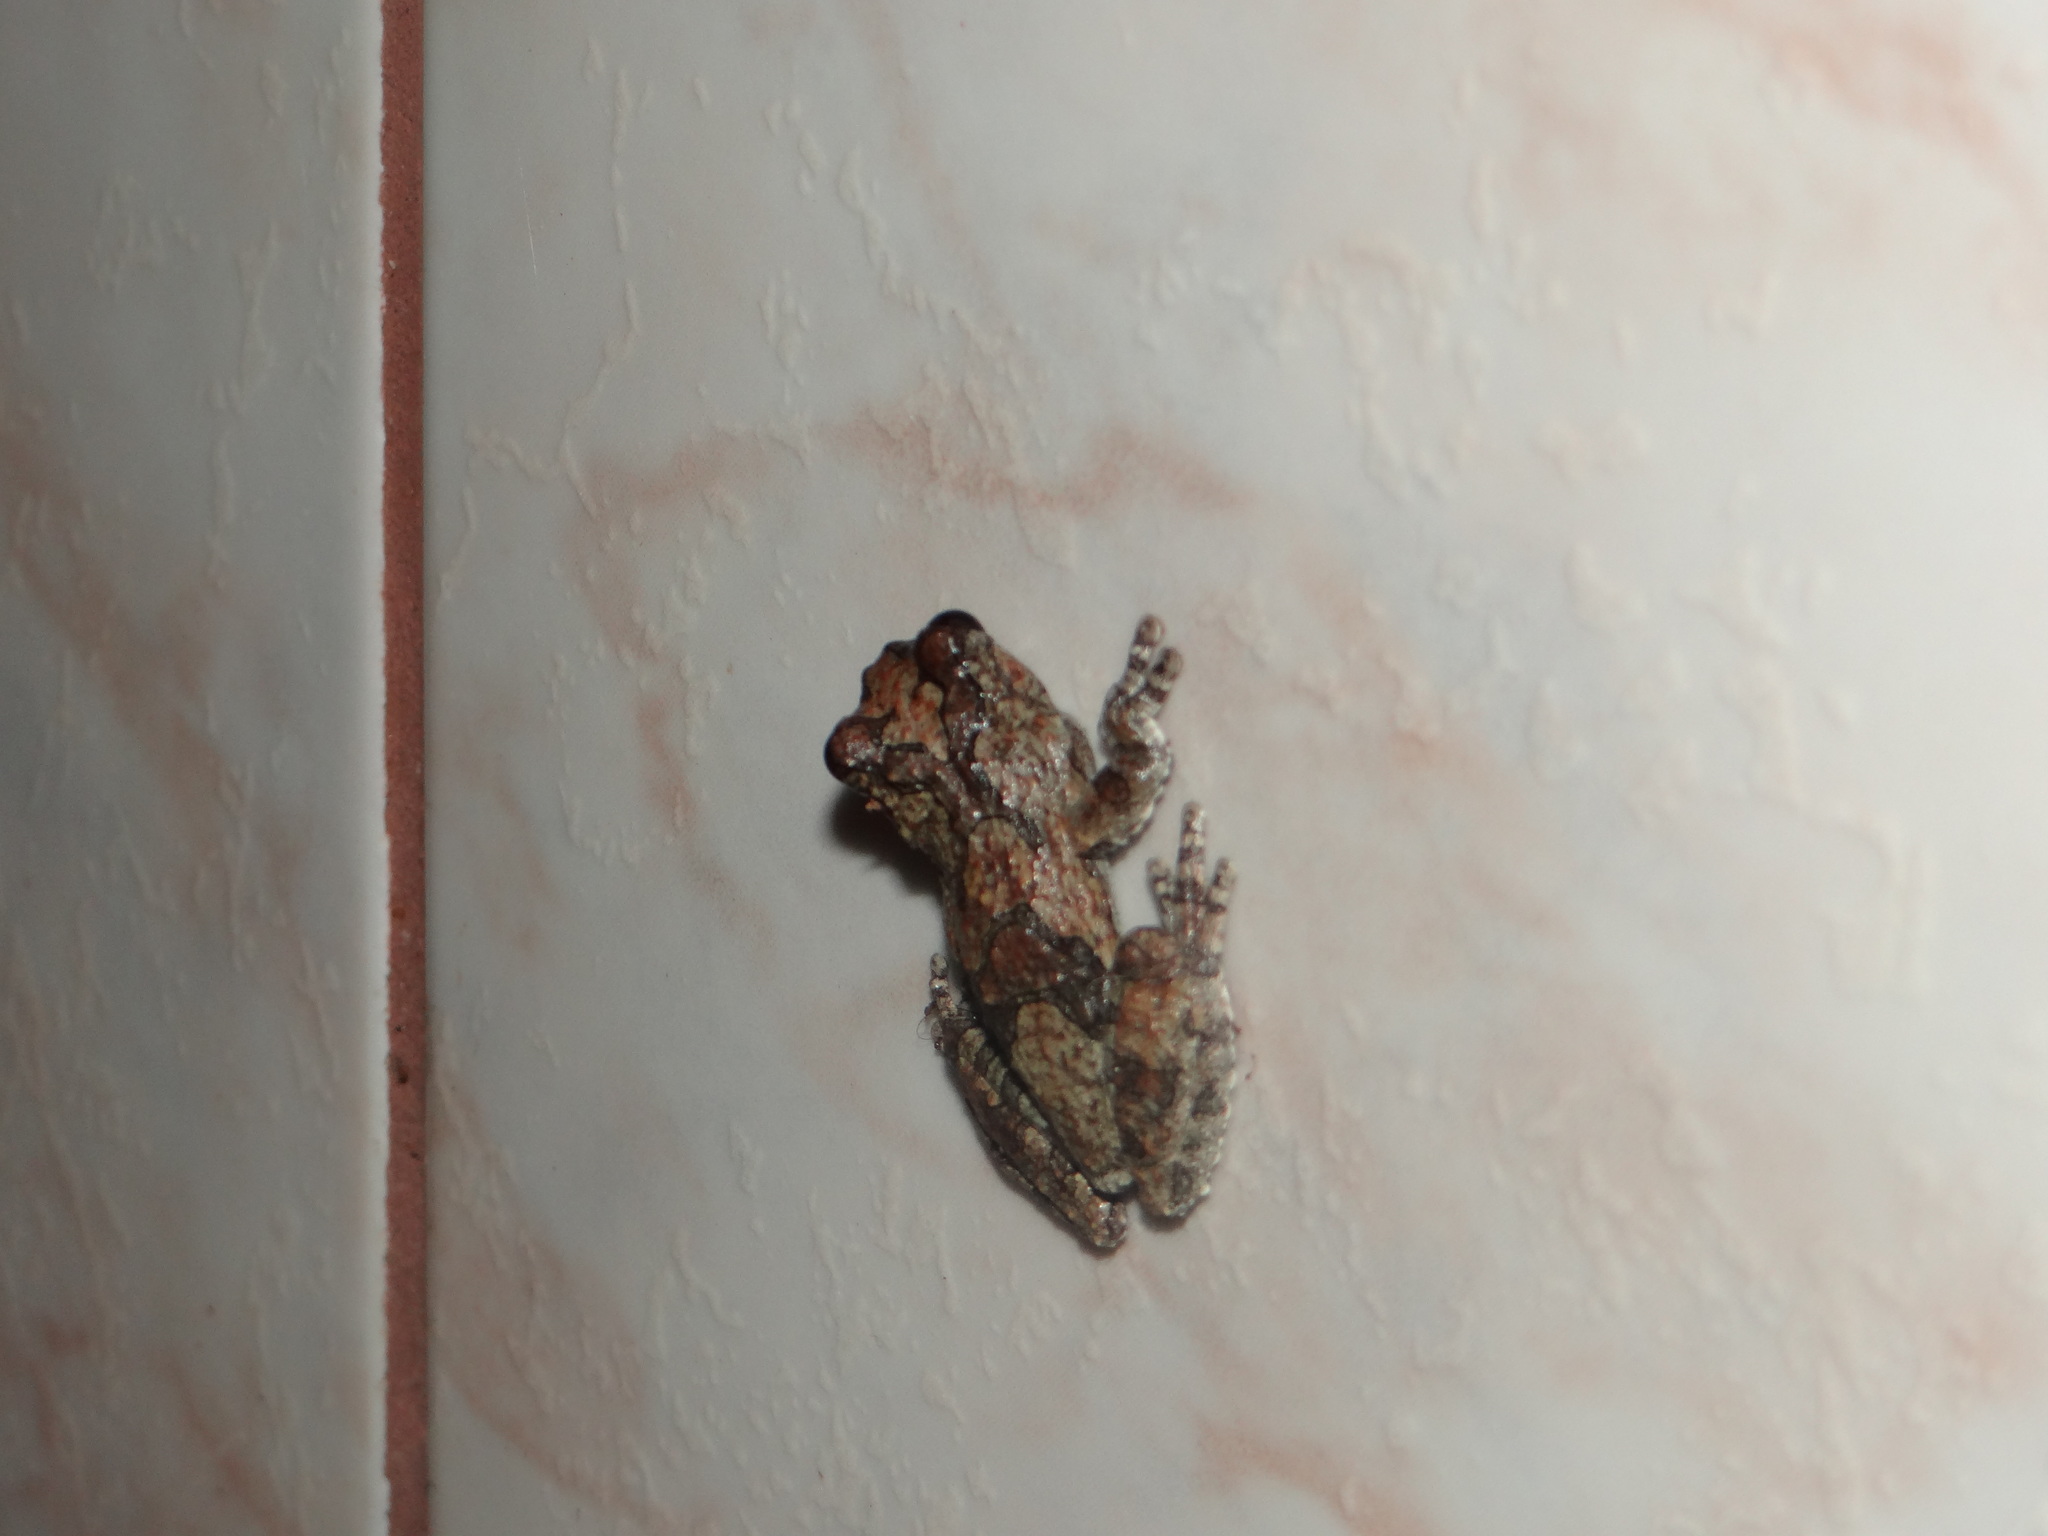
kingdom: Animalia
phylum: Chordata
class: Amphibia
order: Anura
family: Hylidae
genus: Dendropsophus
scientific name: Dendropsophus acreanus
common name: Acre treefrog
